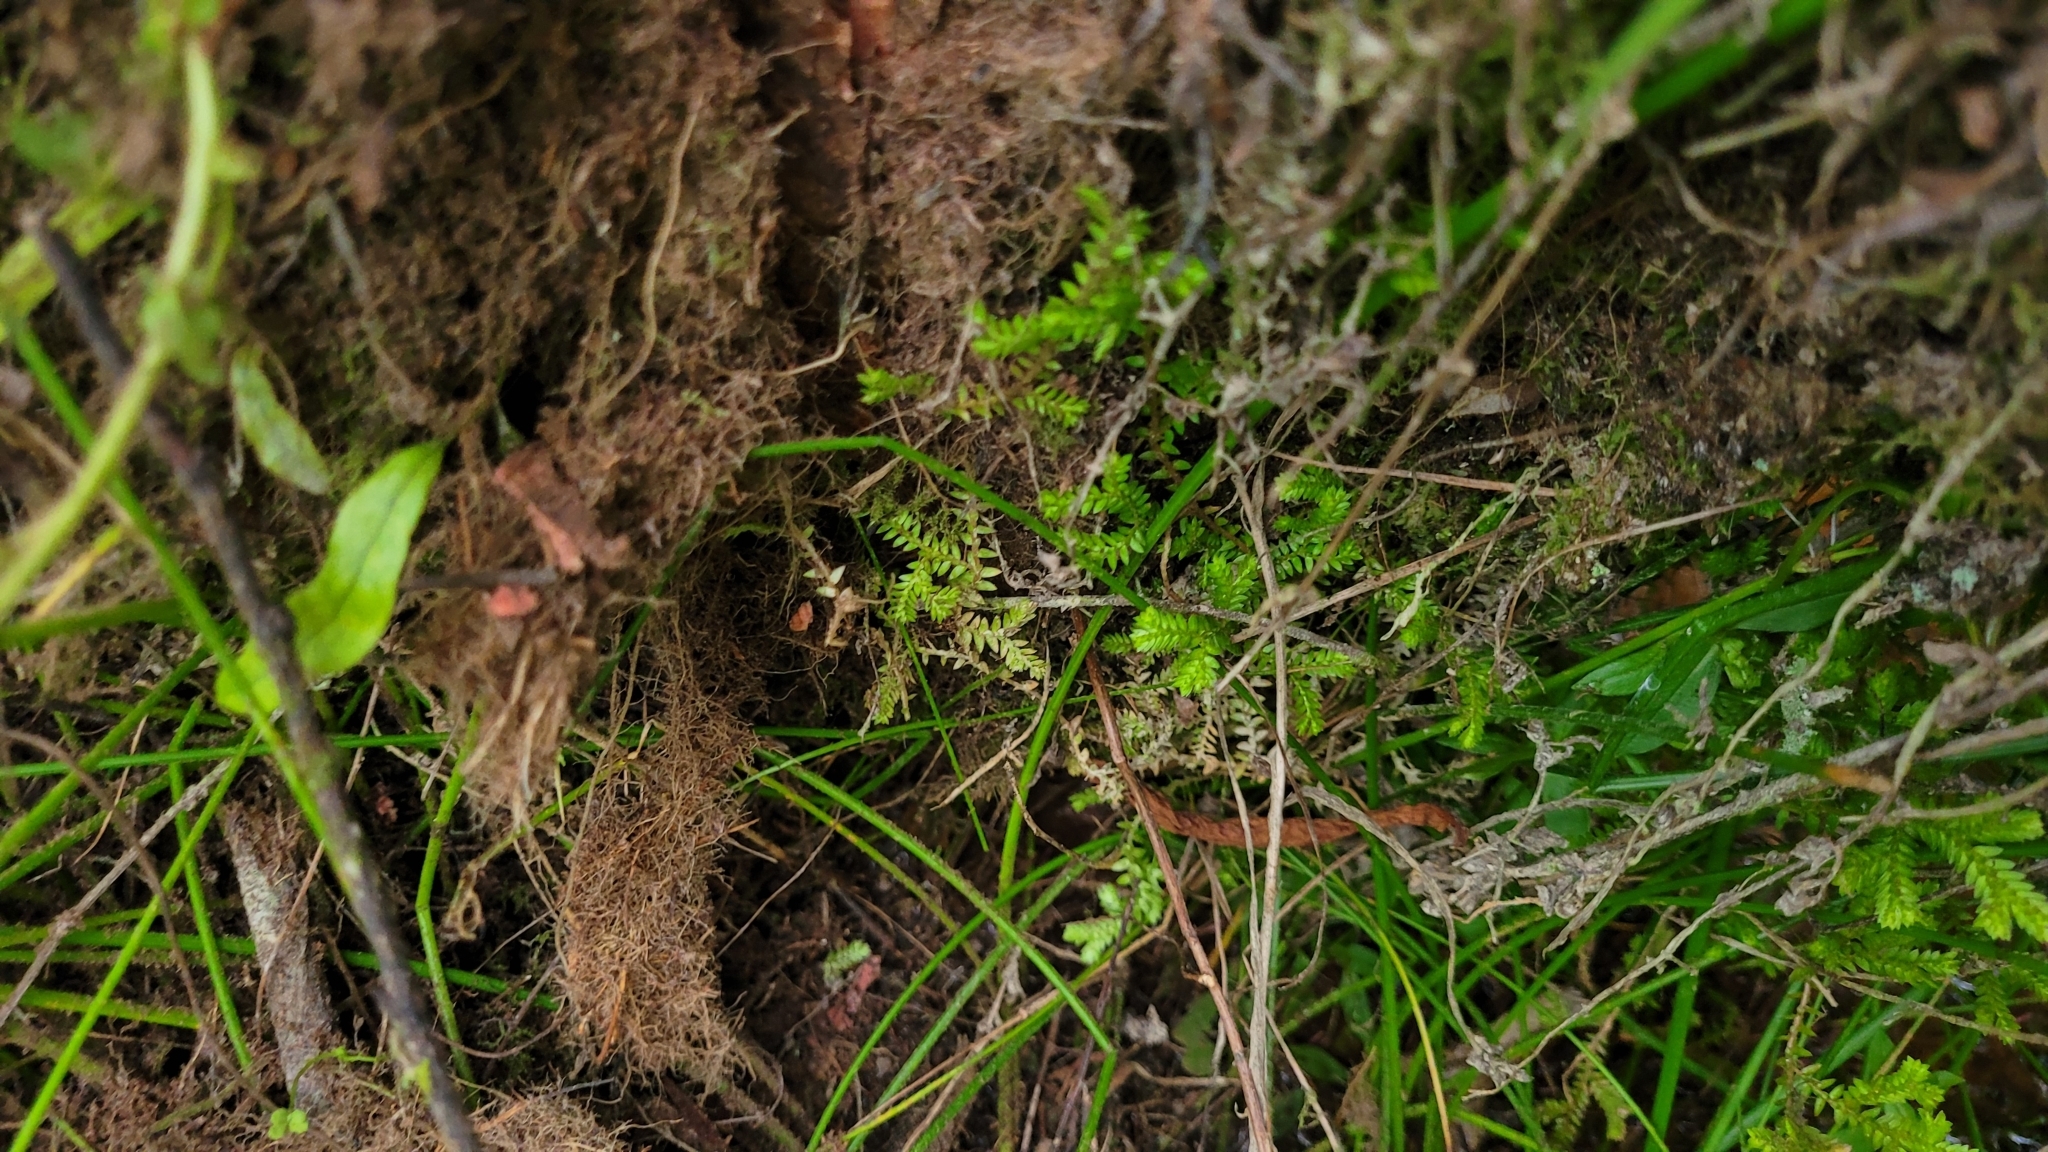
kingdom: Plantae
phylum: Tracheophyta
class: Lycopodiopsida
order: Selaginellales
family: Selaginellaceae
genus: Selaginella
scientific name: Selaginella kraussiana
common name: Krauss' spikemoss
